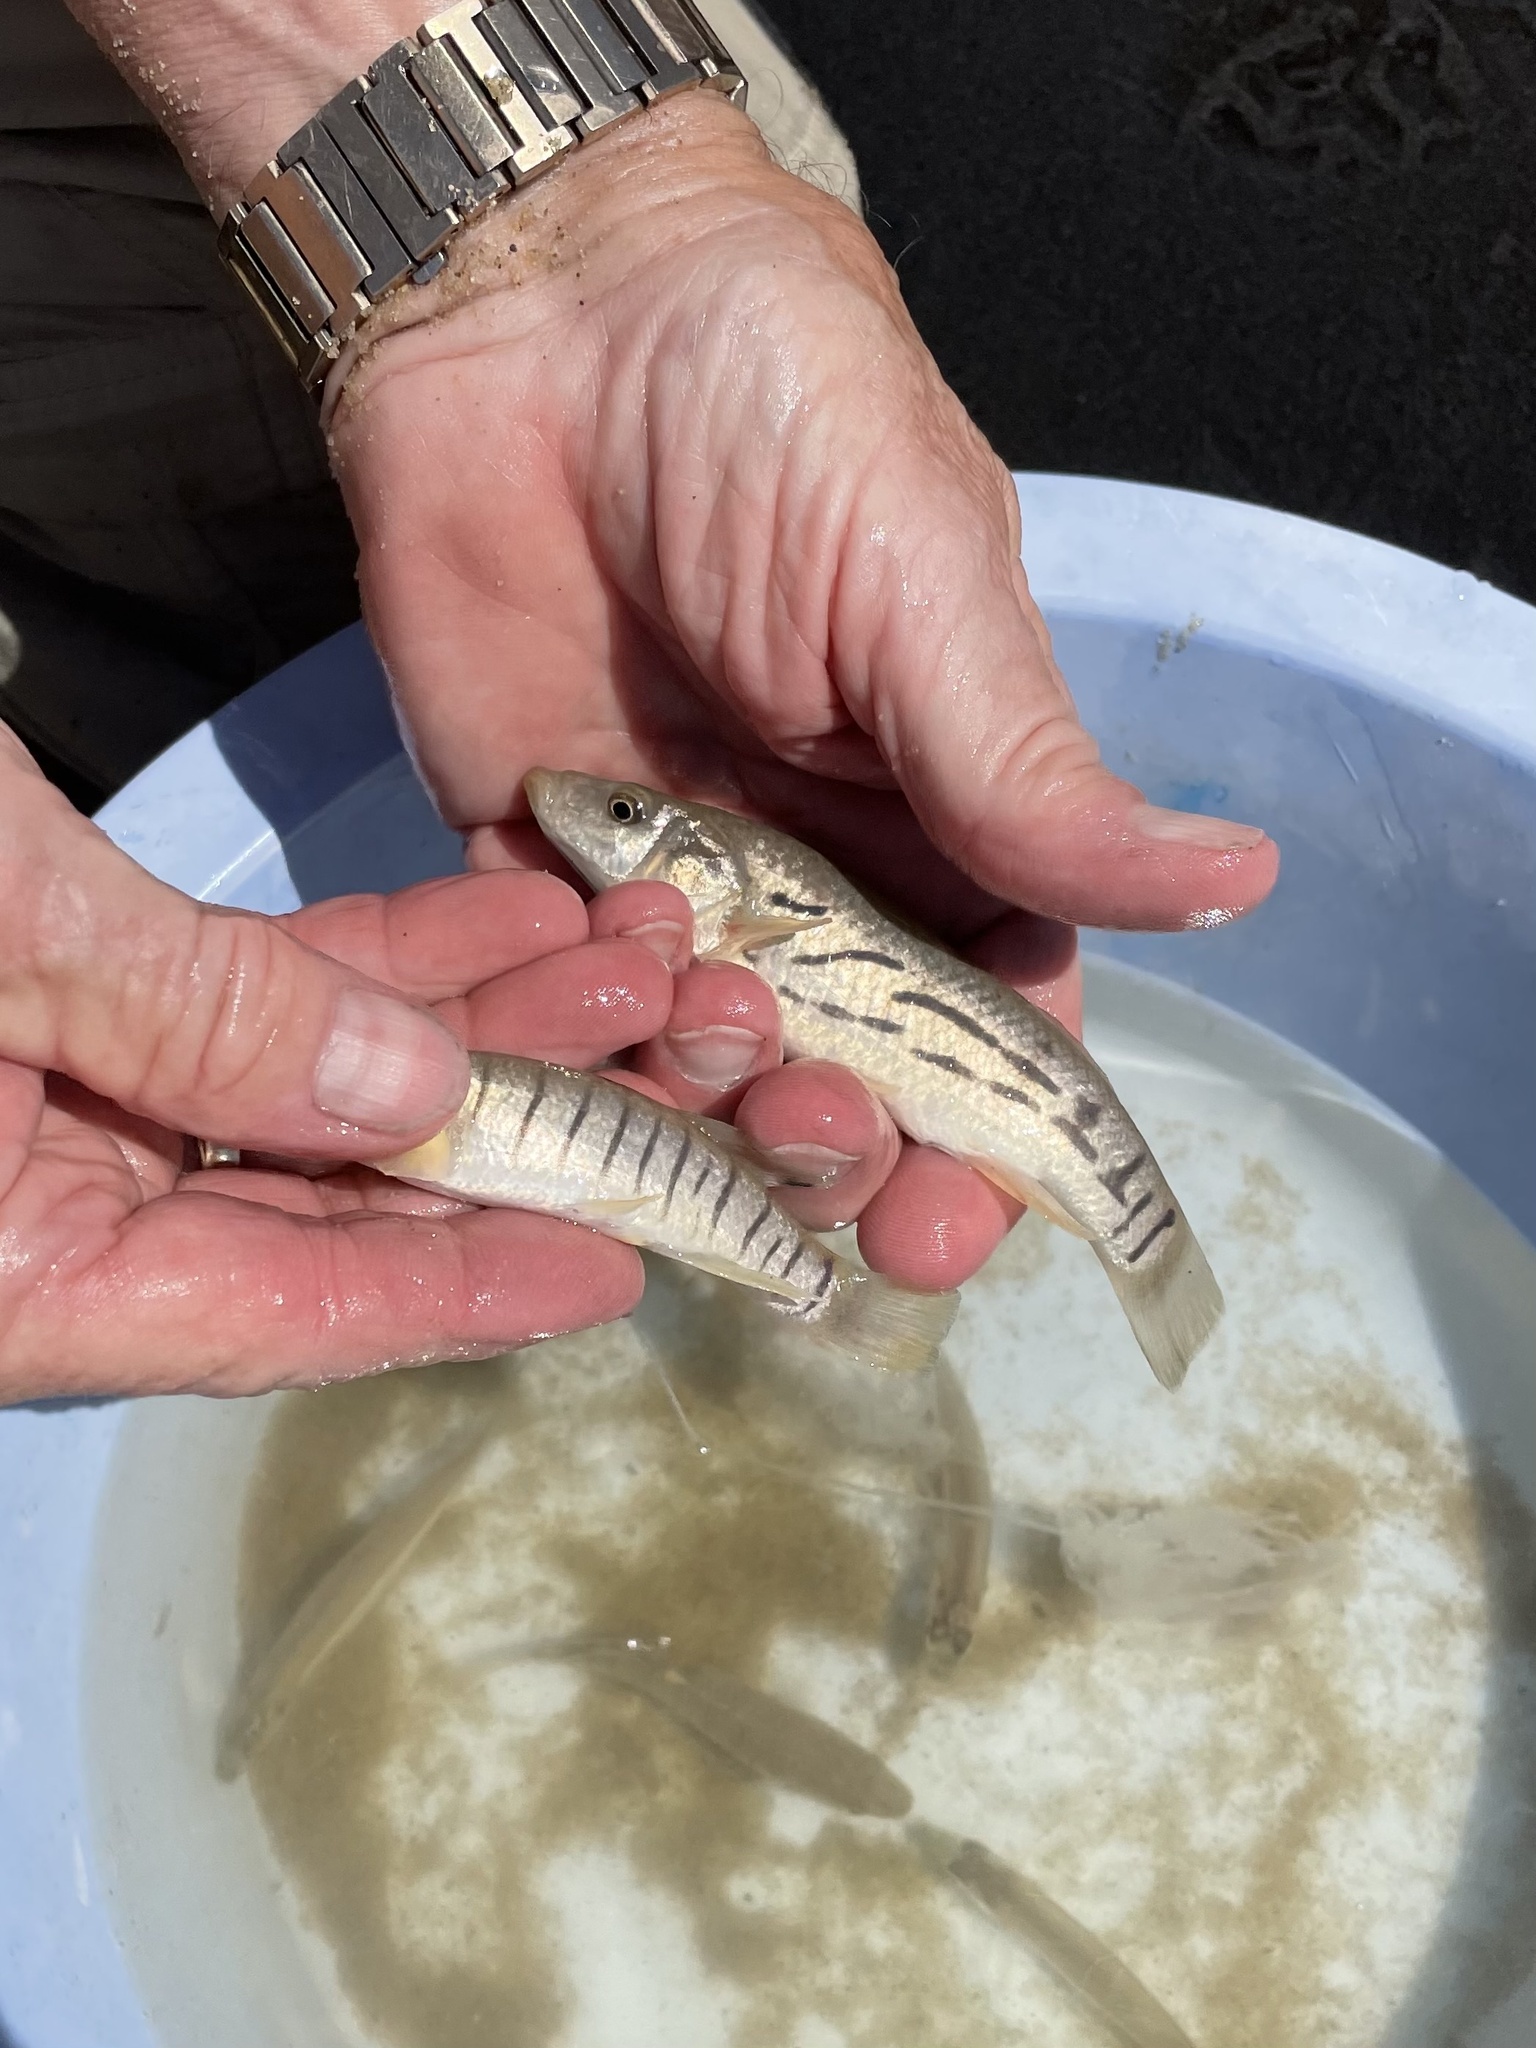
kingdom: Animalia
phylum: Chordata
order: Cyprinodontiformes
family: Fundulidae
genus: Fundulus
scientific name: Fundulus majalis
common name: Striped killifish
